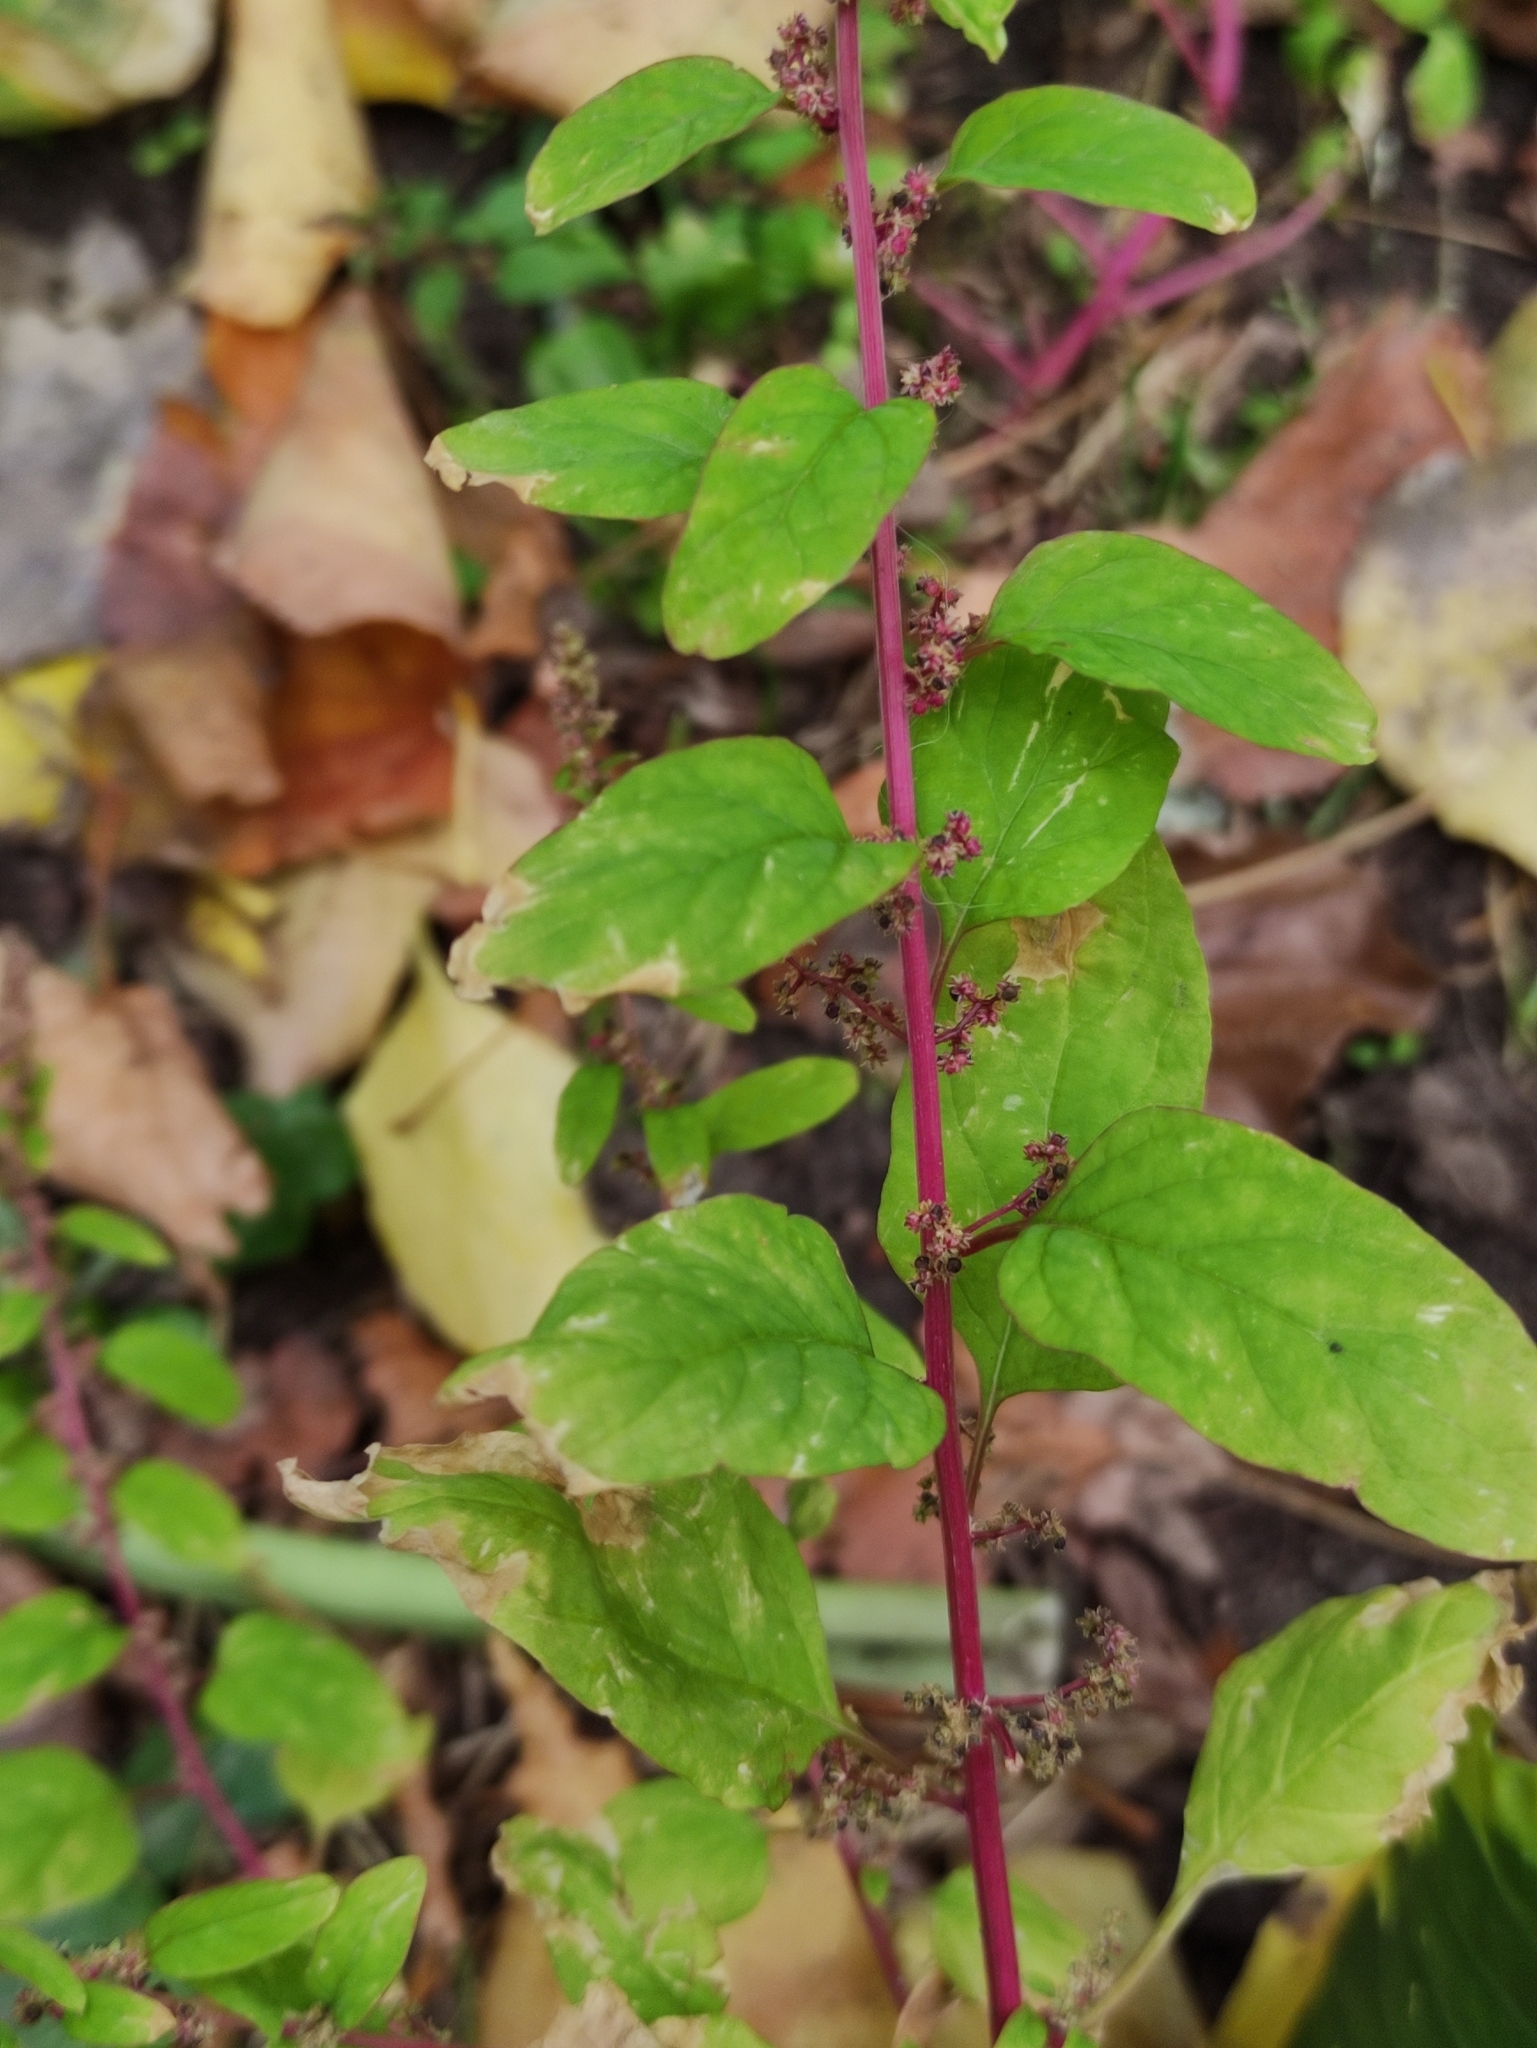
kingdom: Plantae
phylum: Tracheophyta
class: Magnoliopsida
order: Caryophyllales
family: Amaranthaceae
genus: Lipandra
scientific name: Lipandra polysperma
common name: Many-seed goosefoot
